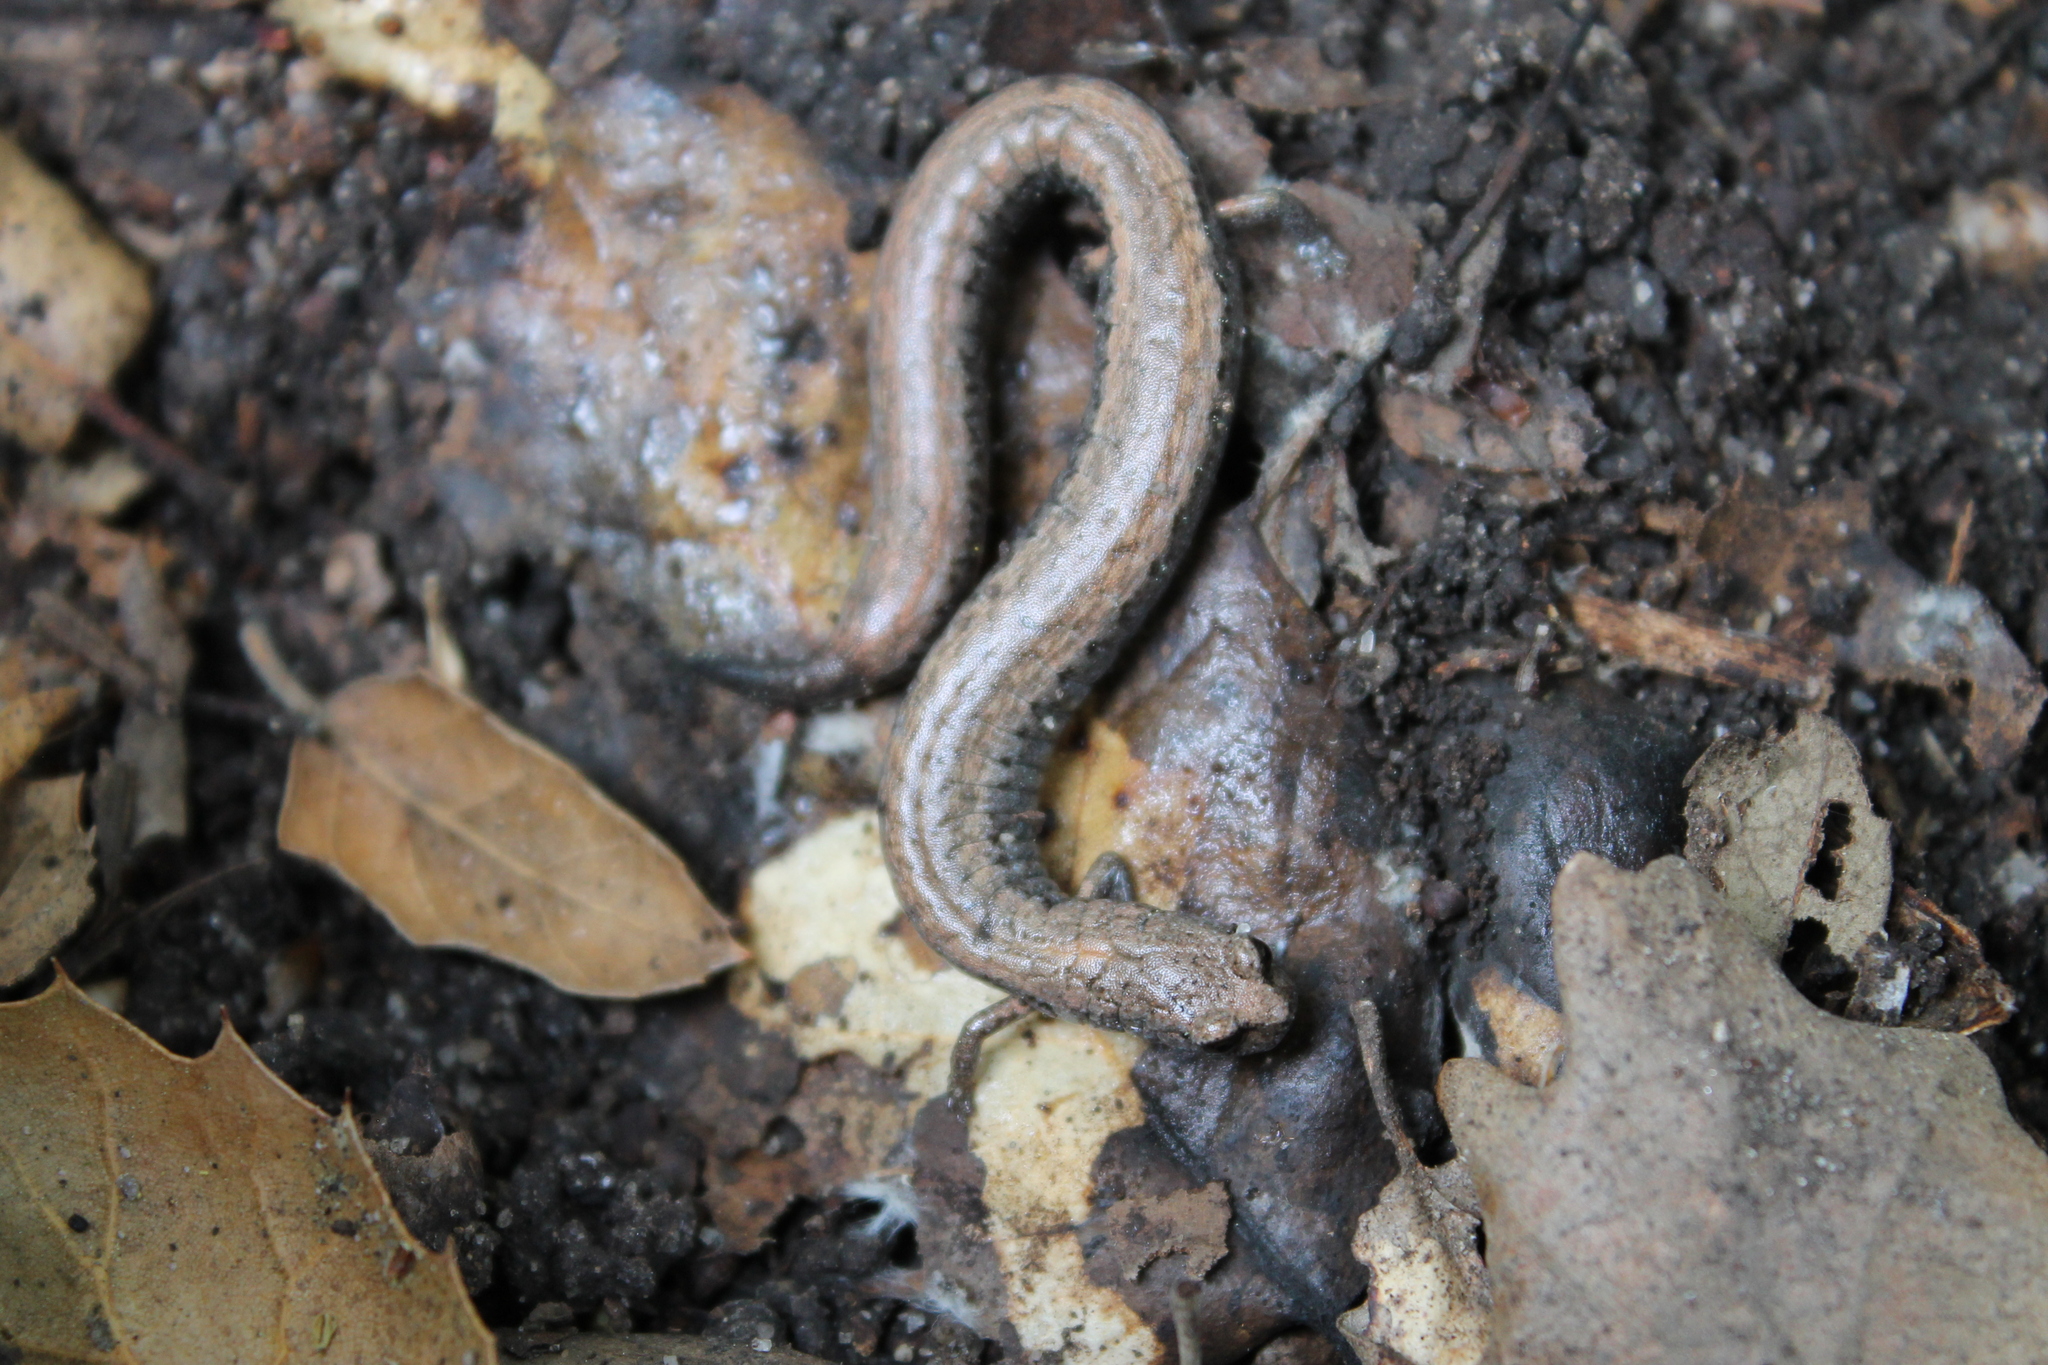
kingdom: Animalia
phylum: Chordata
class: Amphibia
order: Caudata
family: Plethodontidae
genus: Batrachoseps
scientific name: Batrachoseps gavilanensis
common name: Gabilan mountains slender salamander
